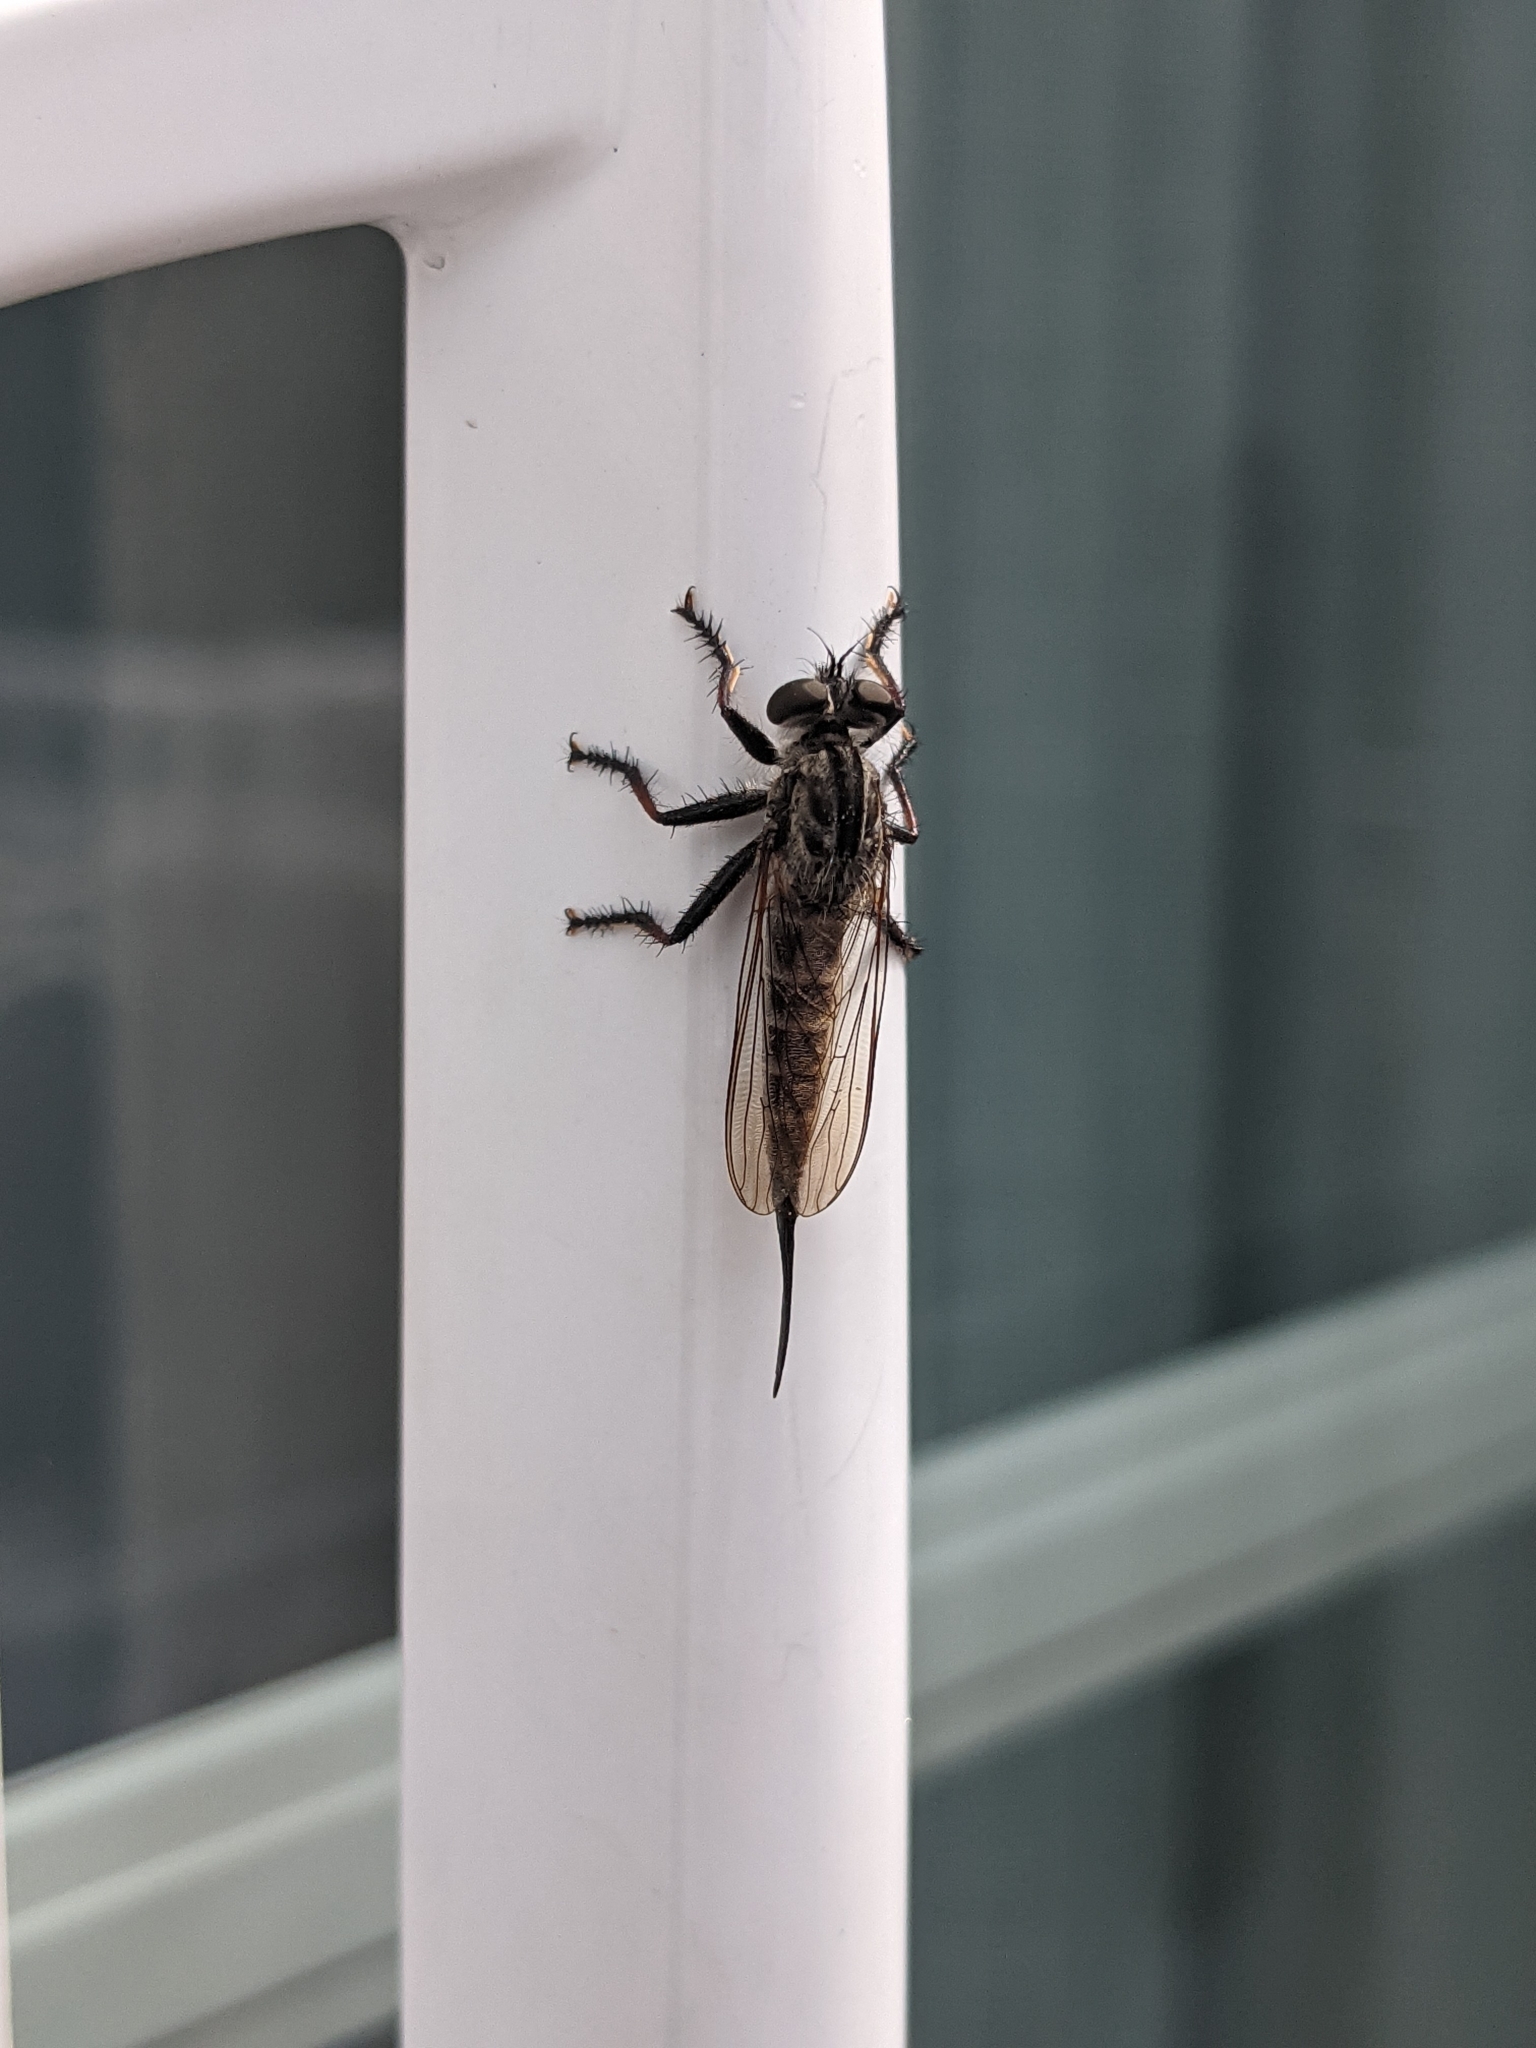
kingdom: Animalia
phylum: Arthropoda
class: Insecta
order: Diptera
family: Asilidae
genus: Efferia
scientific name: Efferia aestuans
